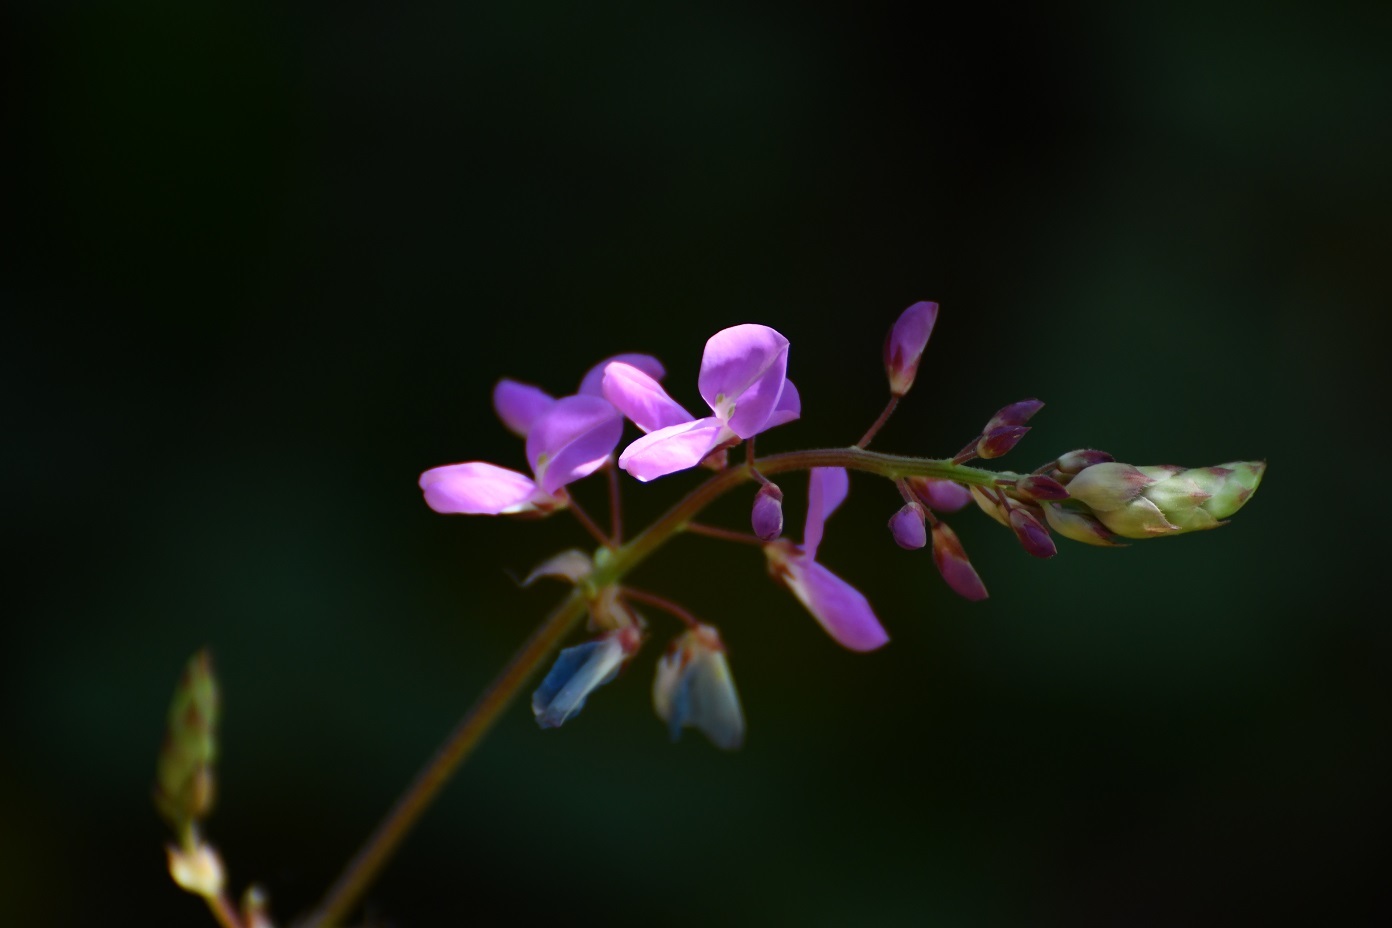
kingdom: Plantae
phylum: Tracheophyta
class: Magnoliopsida
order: Fabales
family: Fabaceae
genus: Desmodium
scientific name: Desmodium pringlei
